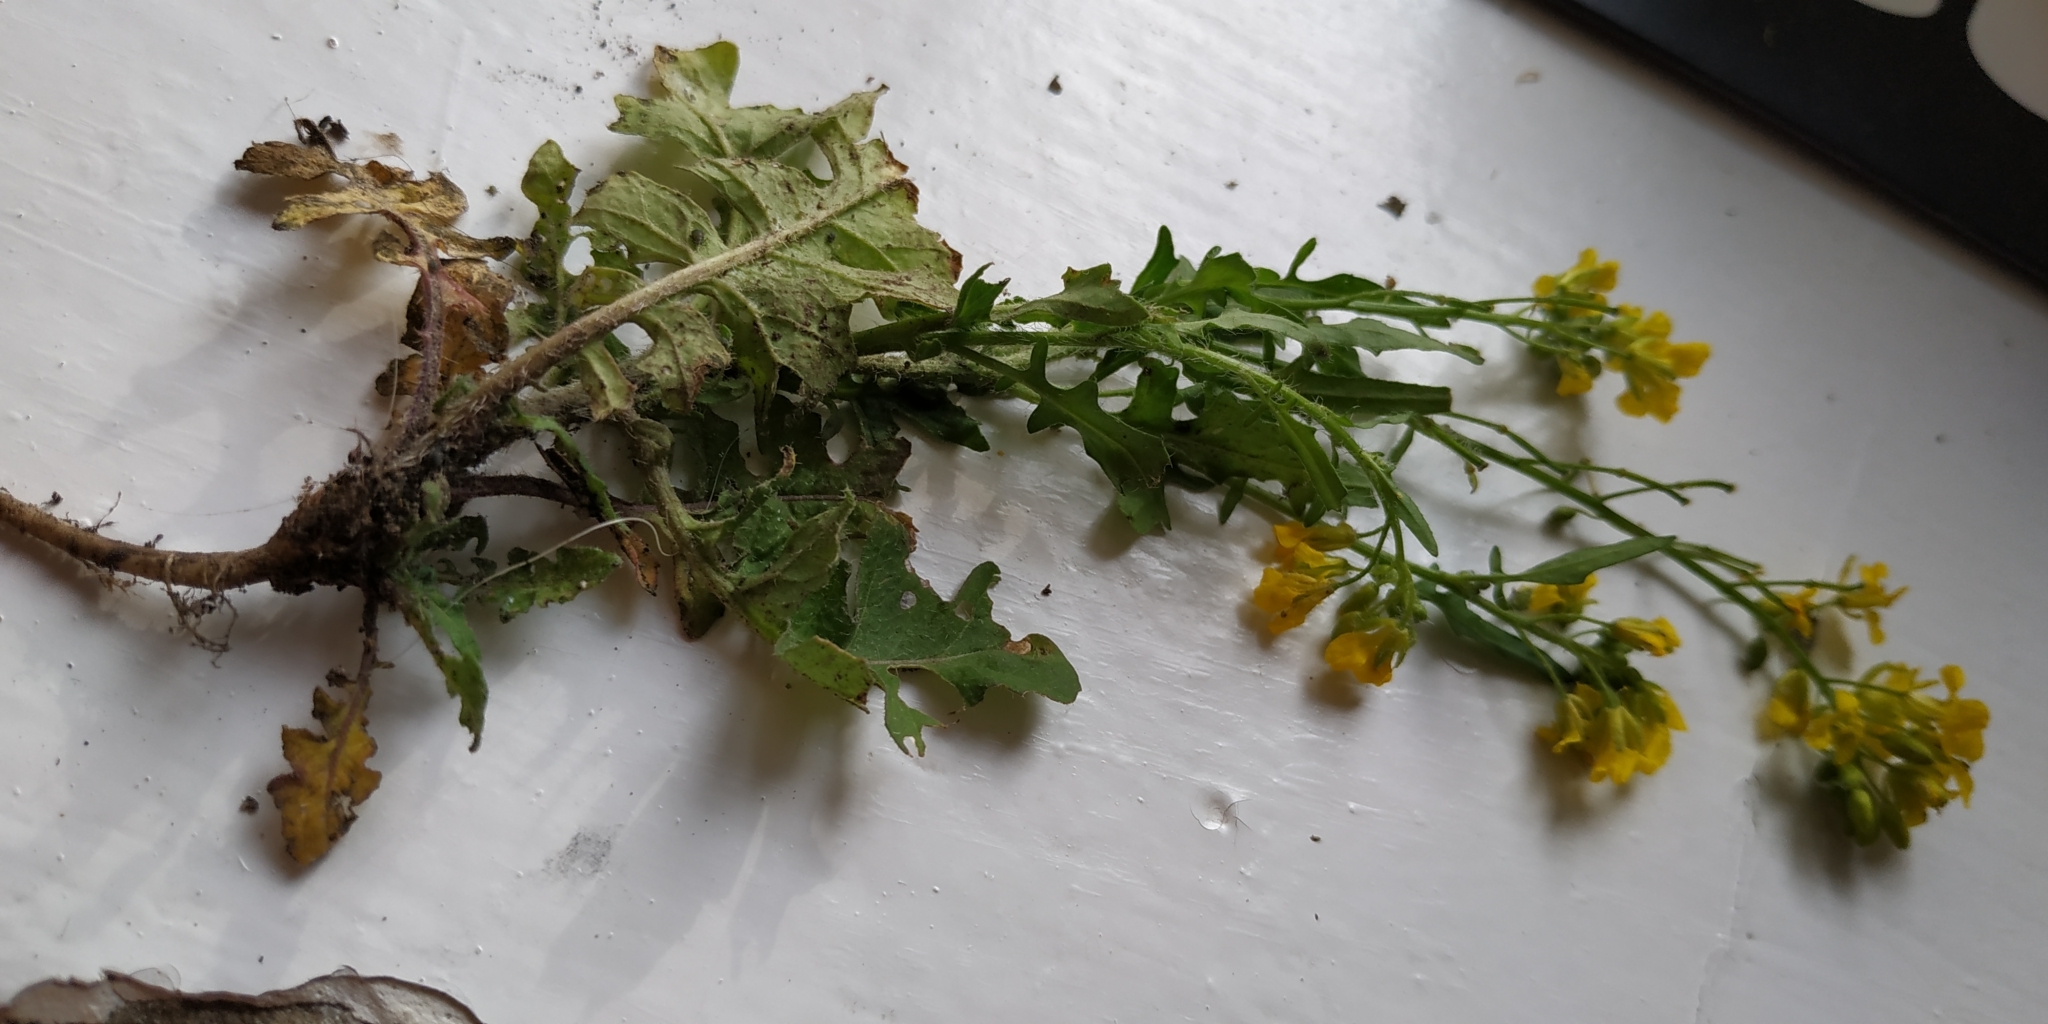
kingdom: Plantae
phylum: Tracheophyta
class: Magnoliopsida
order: Brassicales
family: Brassicaceae
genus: Sisymbrium
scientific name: Sisymbrium loeselii
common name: False london-rocket
